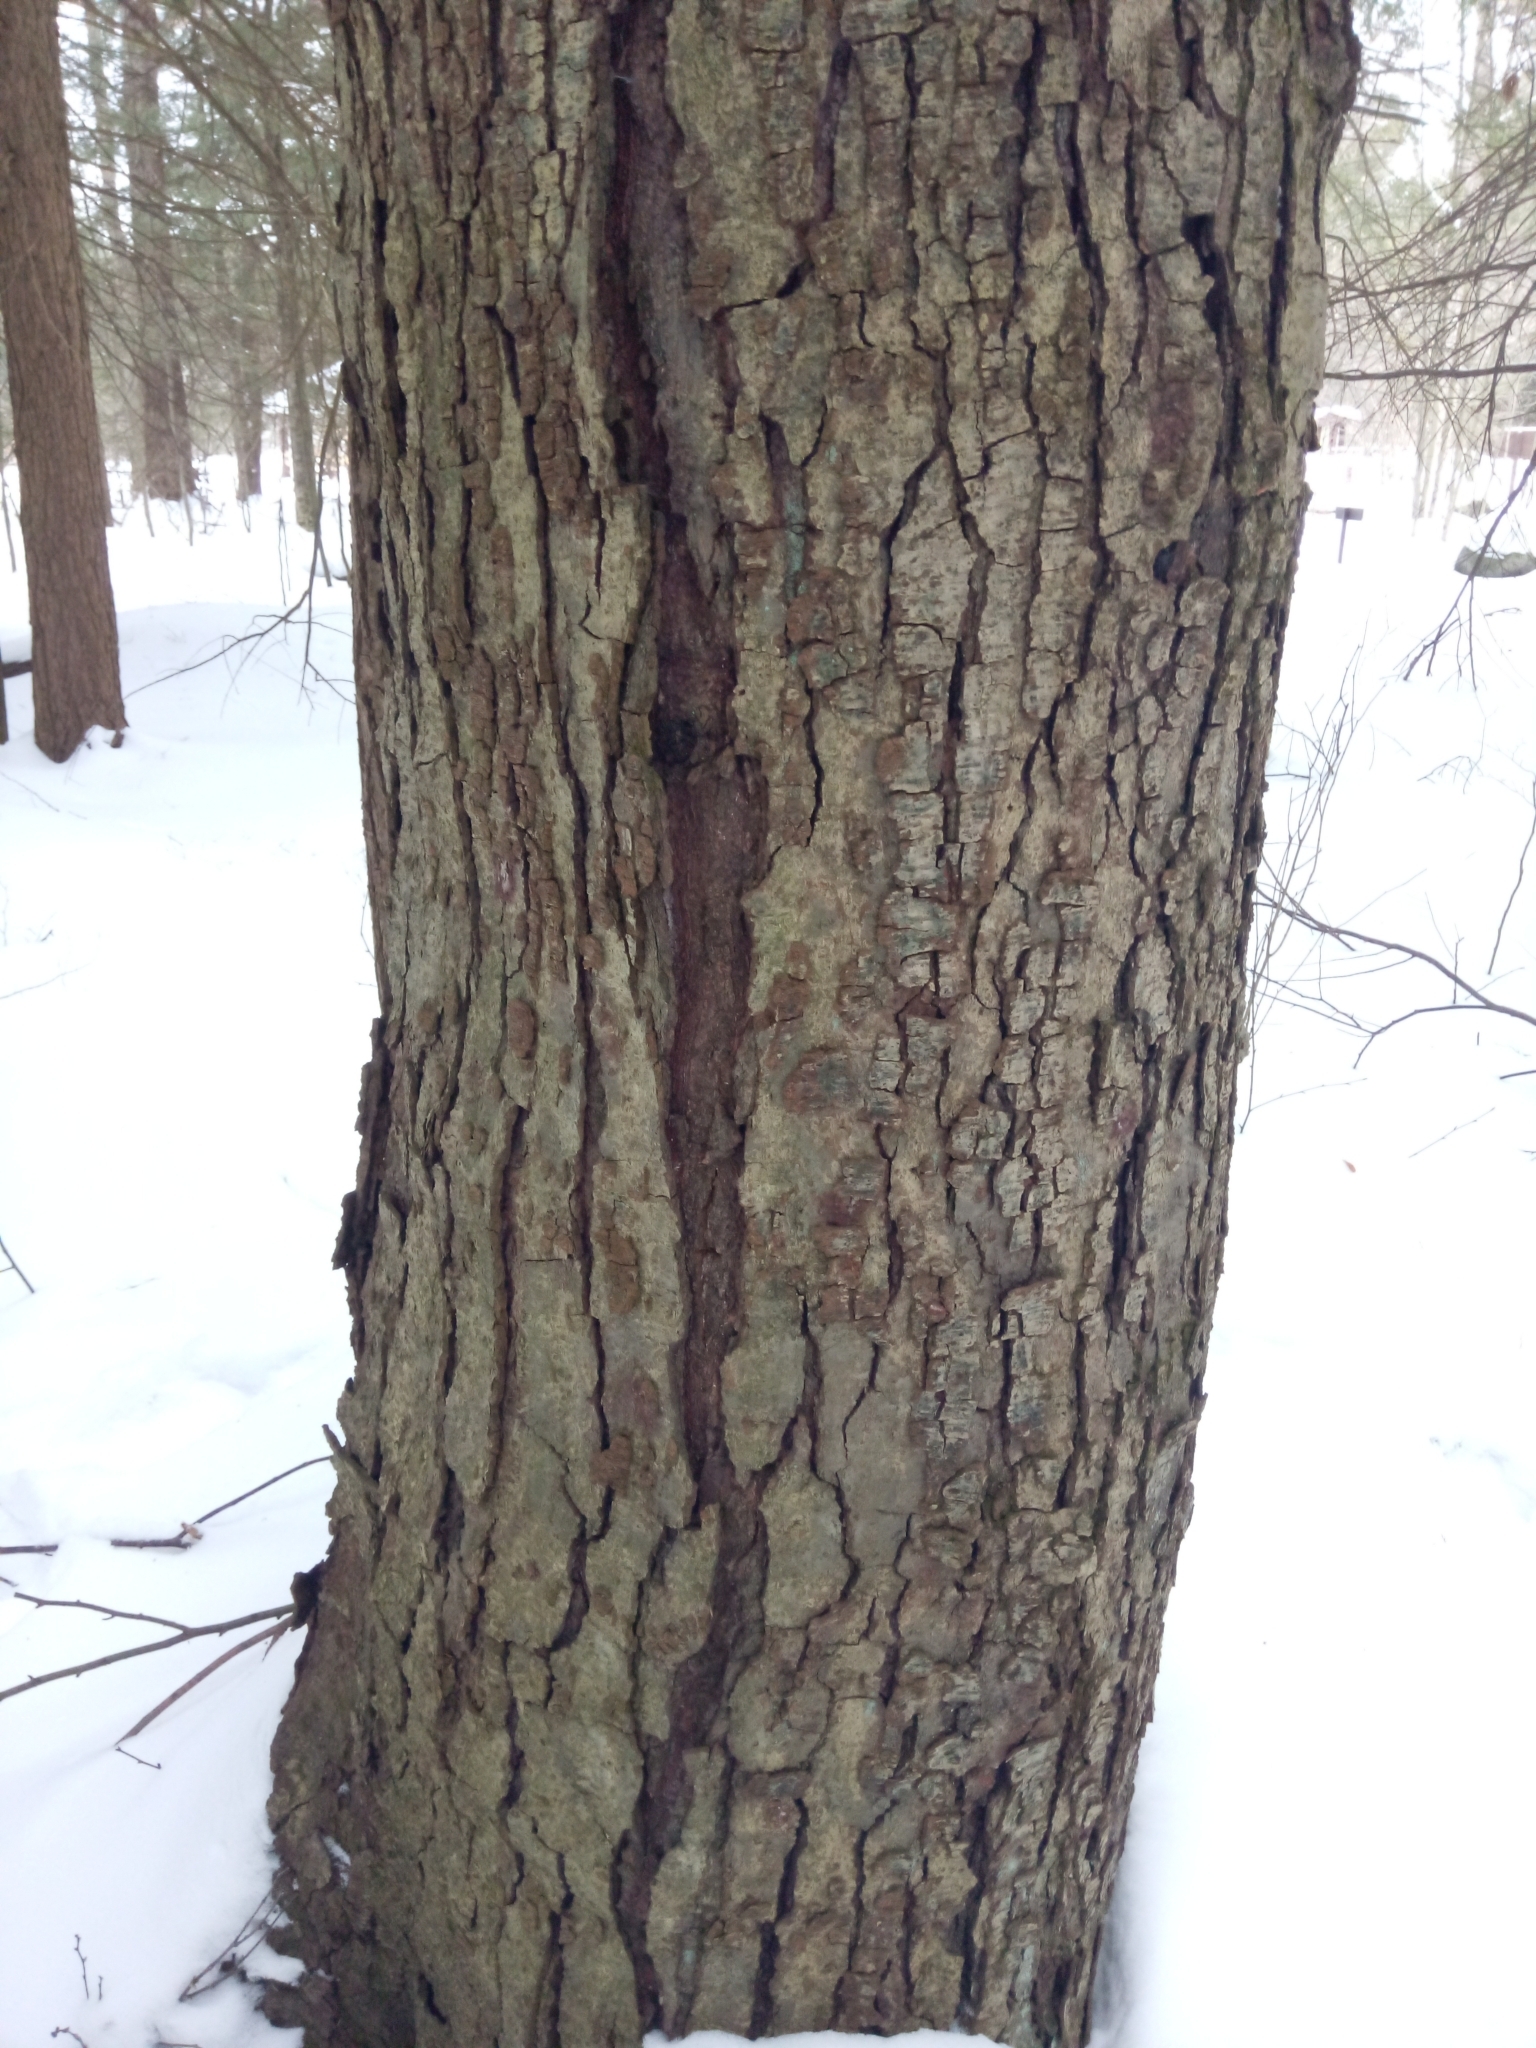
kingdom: Plantae
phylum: Tracheophyta
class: Magnoliopsida
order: Fagales
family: Betulaceae
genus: Betula
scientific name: Betula lenta
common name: Black birch
